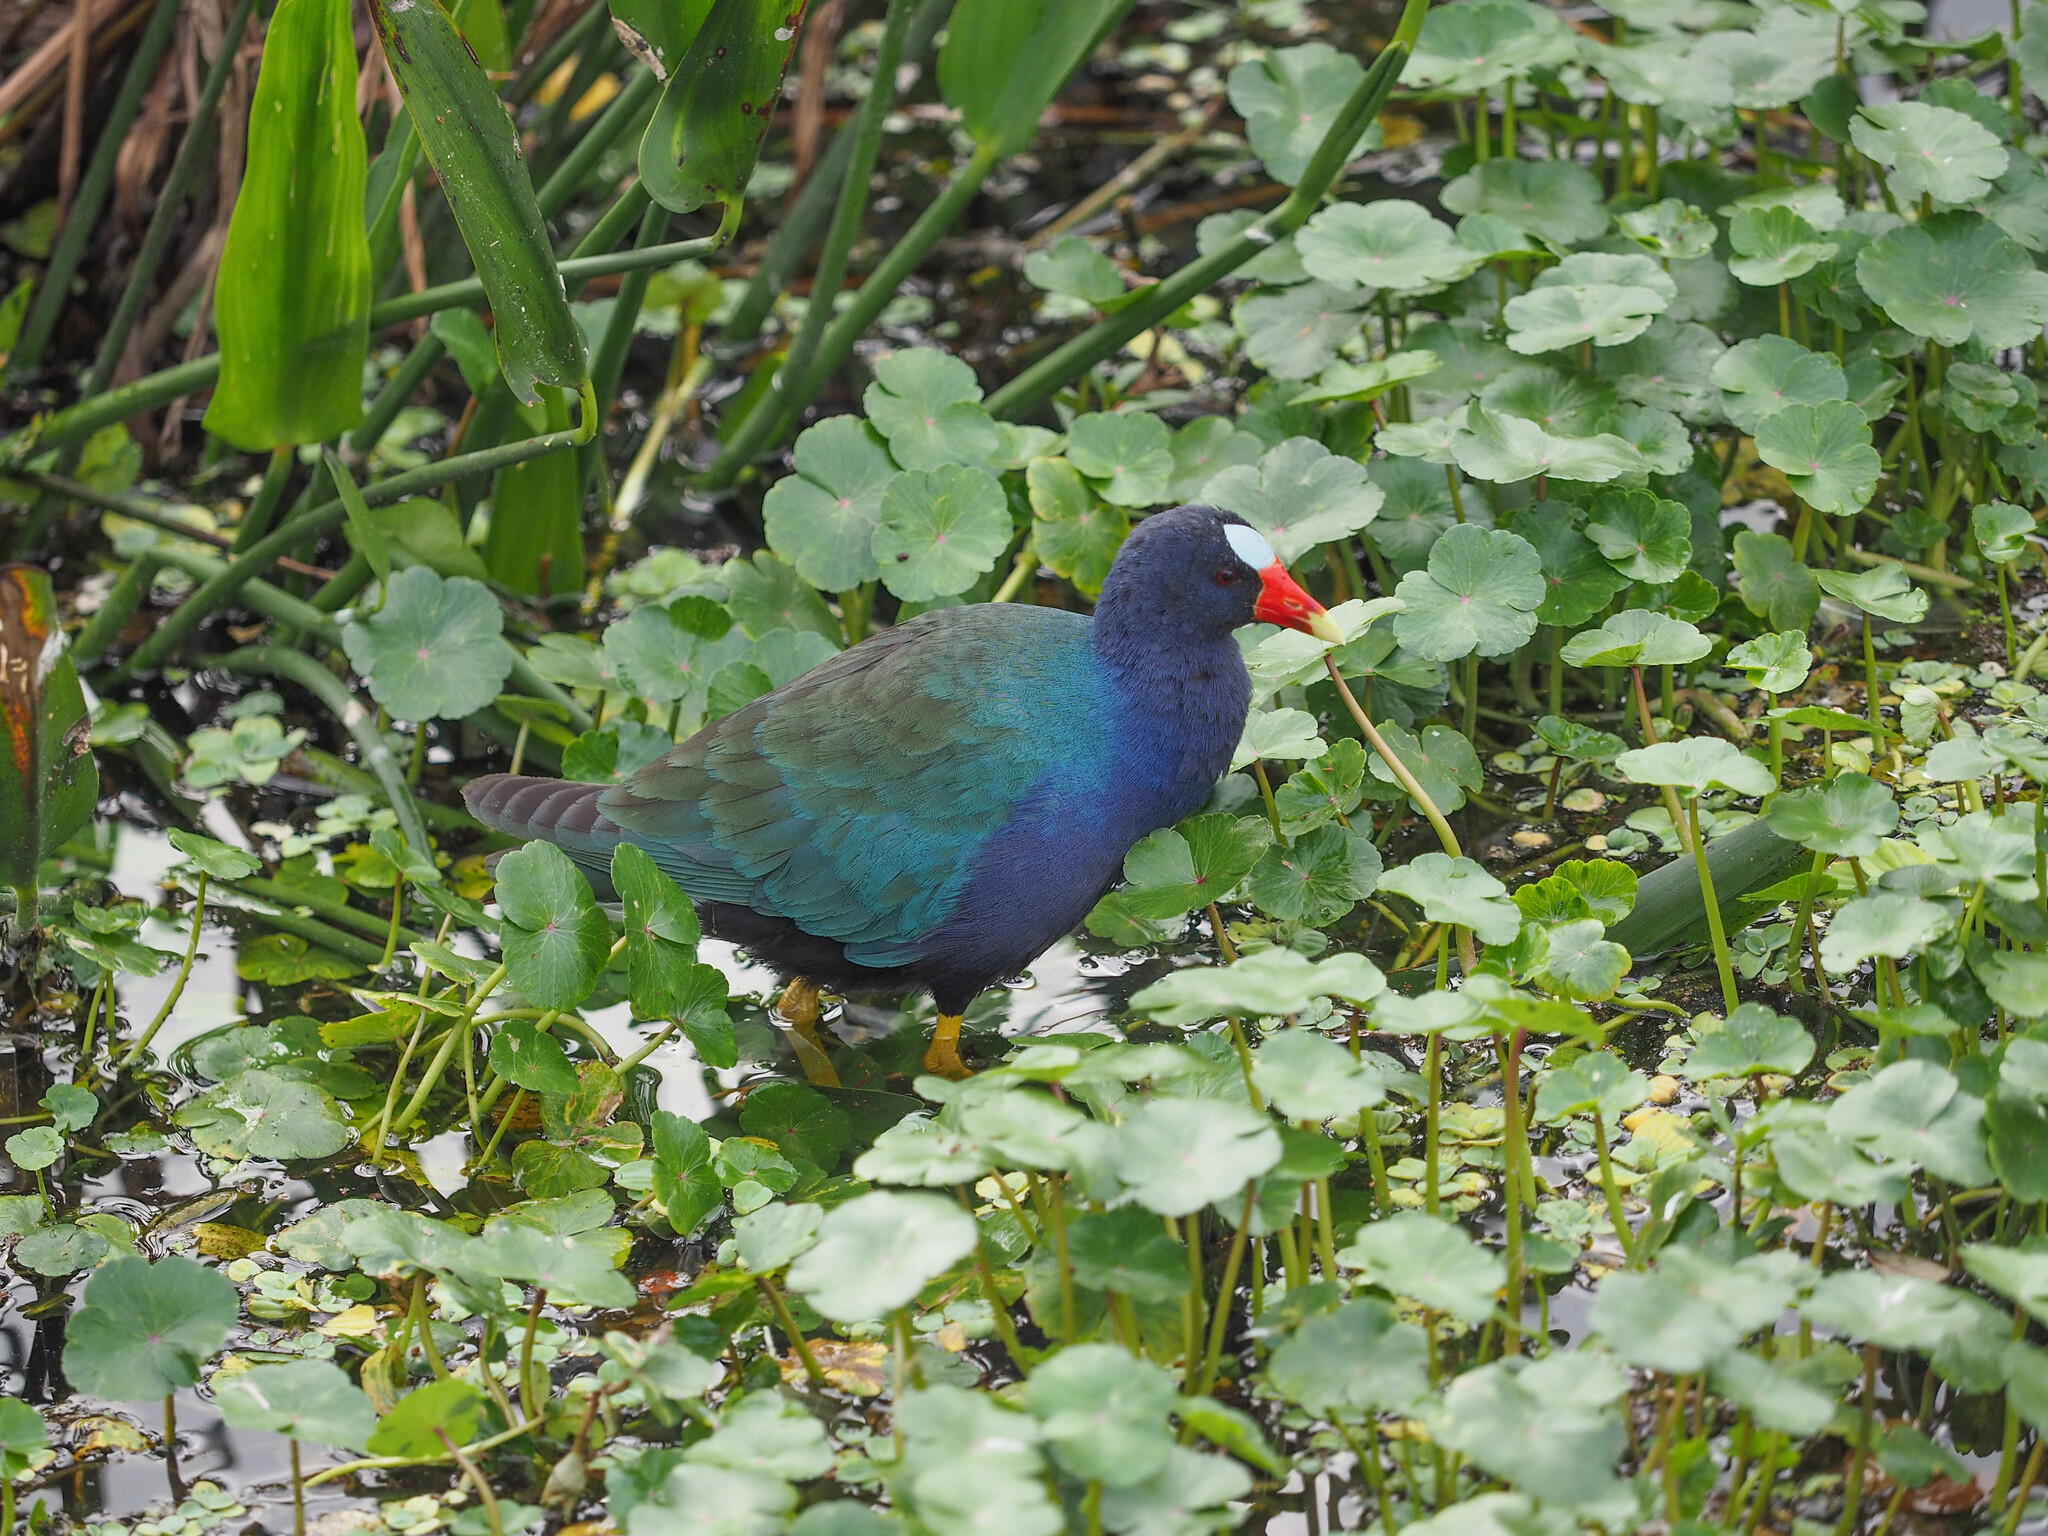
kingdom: Animalia
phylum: Chordata
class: Aves
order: Gruiformes
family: Rallidae
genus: Porphyrio
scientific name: Porphyrio martinica
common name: Purple gallinule
